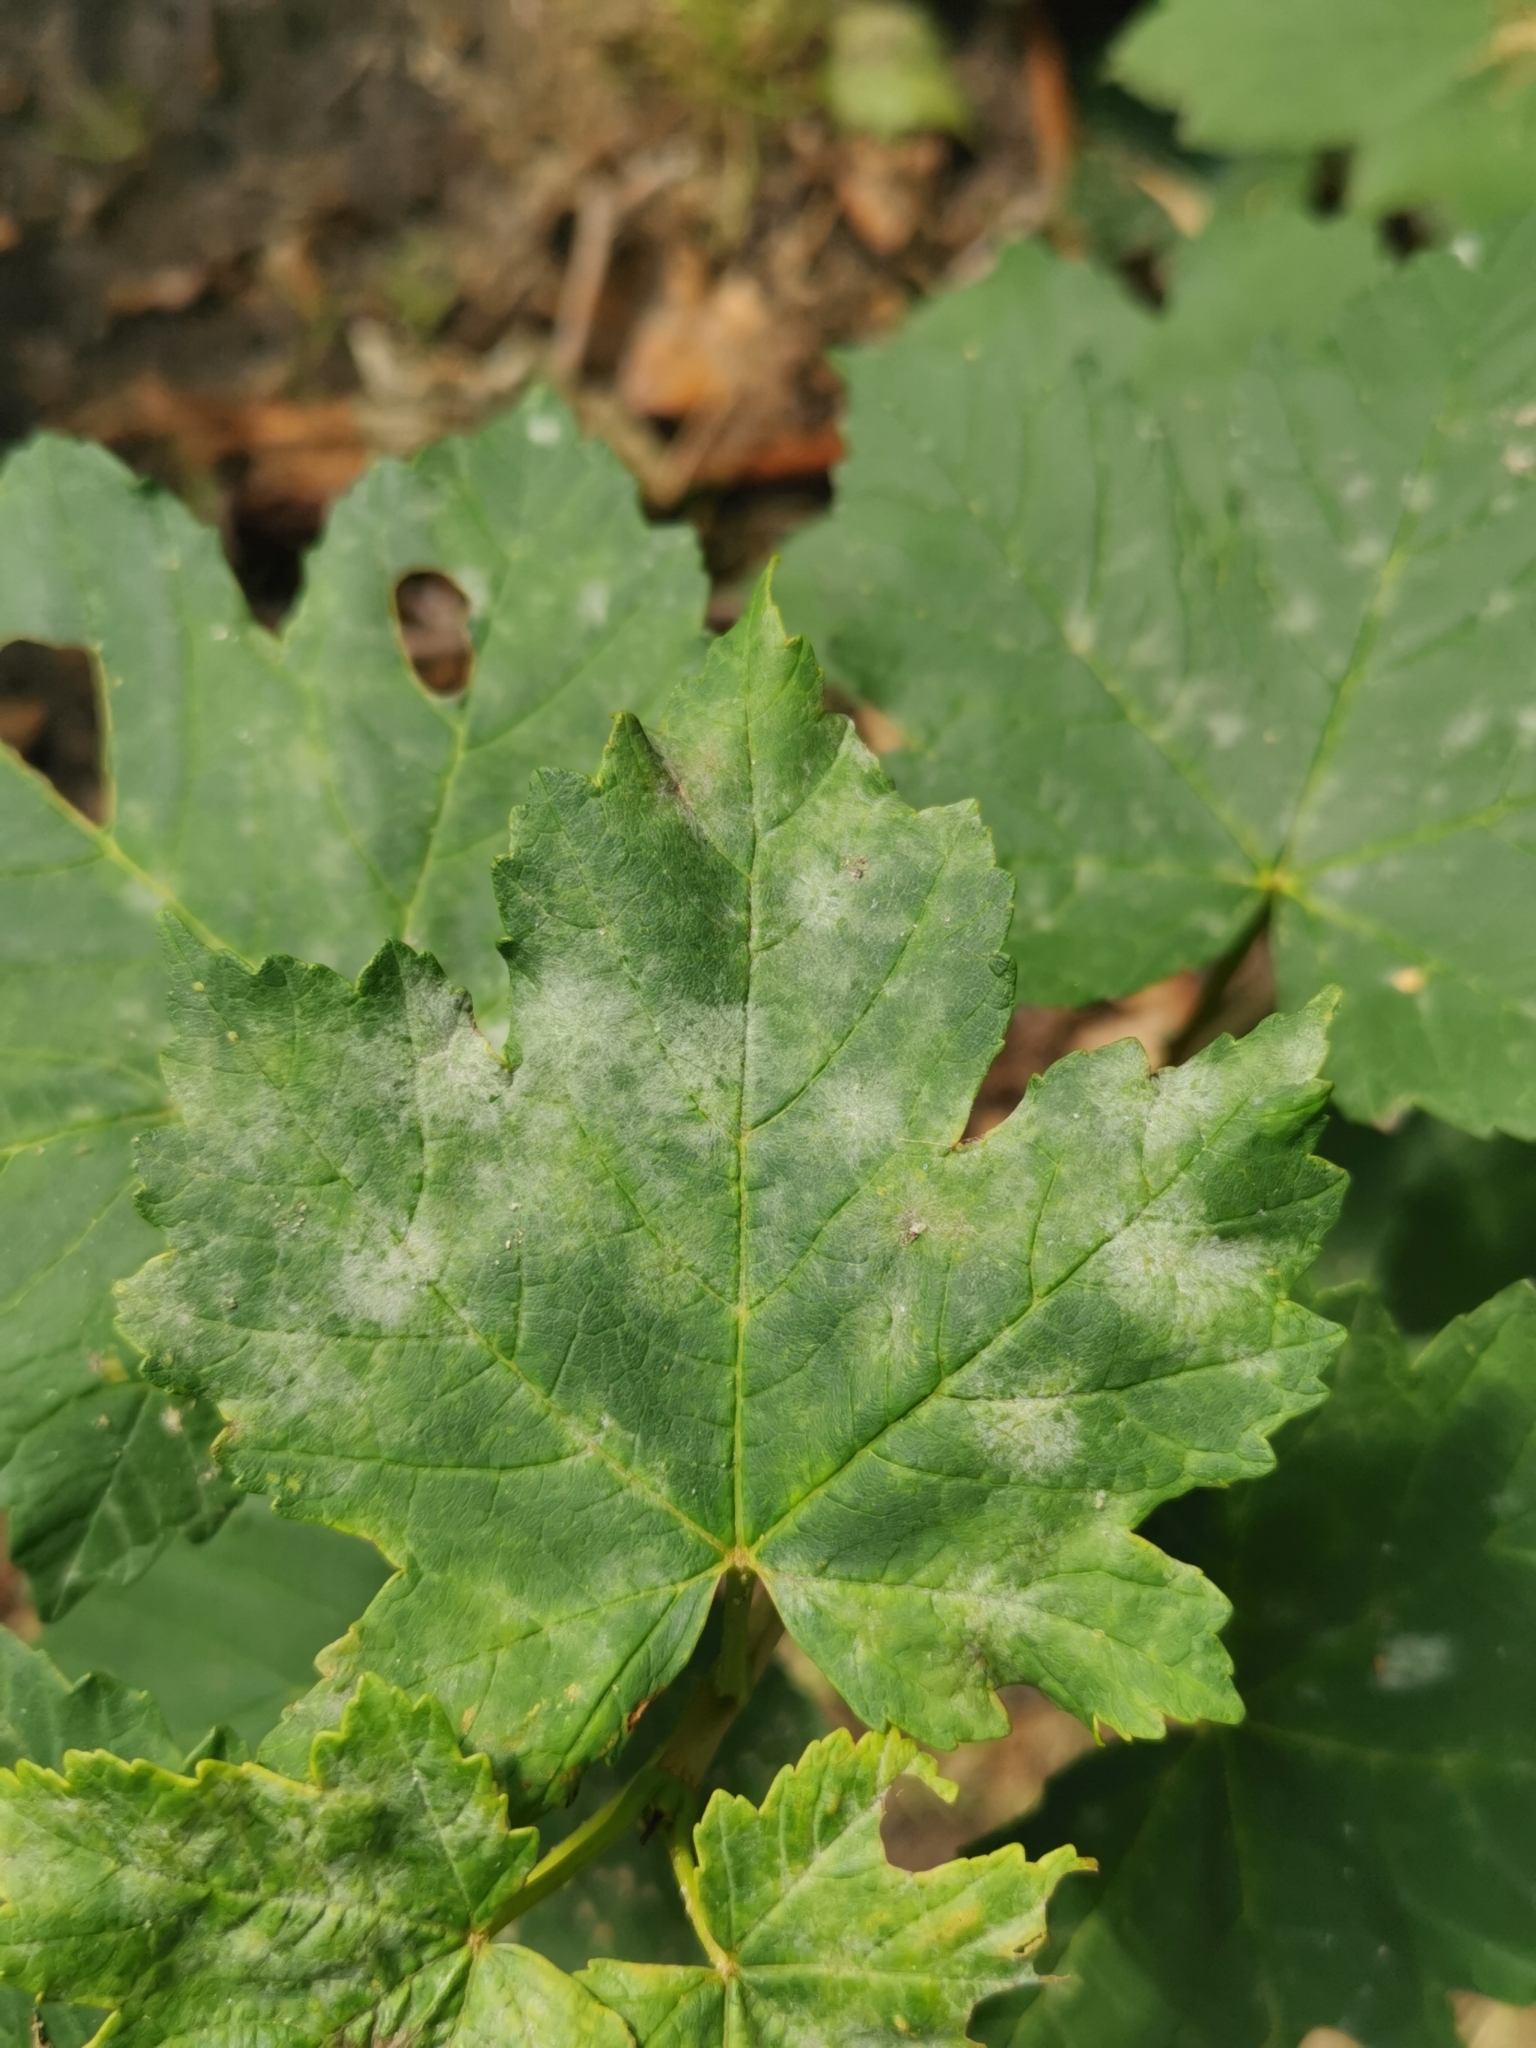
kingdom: Fungi
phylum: Ascomycota
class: Leotiomycetes
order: Helotiales
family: Erysiphaceae
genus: Sawadaea
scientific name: Sawadaea bicornis
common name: Maple mildew
